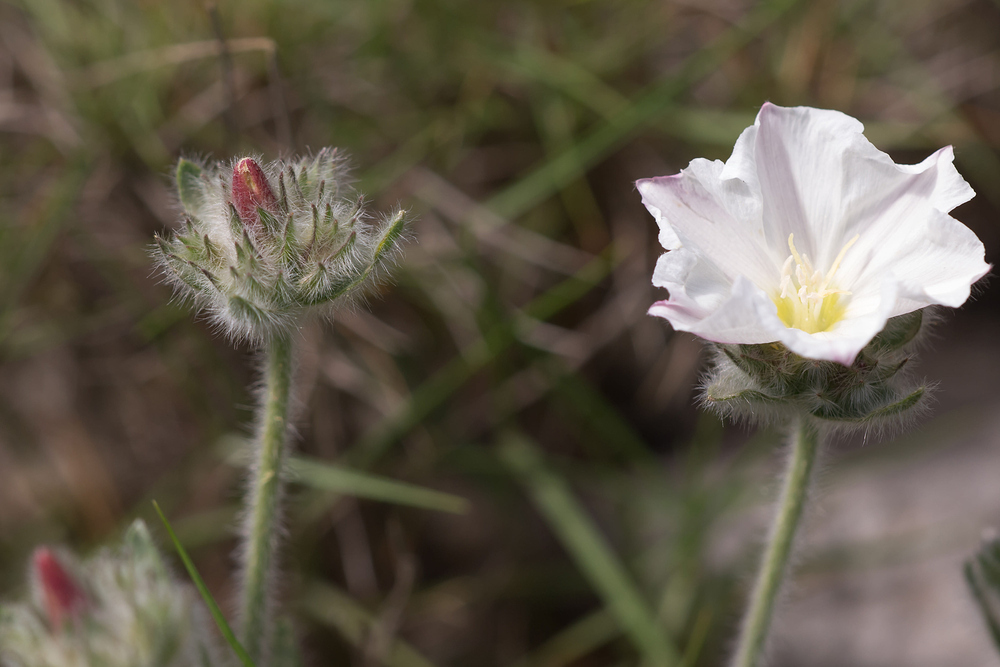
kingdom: Plantae
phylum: Tracheophyta
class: Magnoliopsida
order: Solanales
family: Convolvulaceae
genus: Convolvulus
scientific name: Convolvulus lanuginosus
